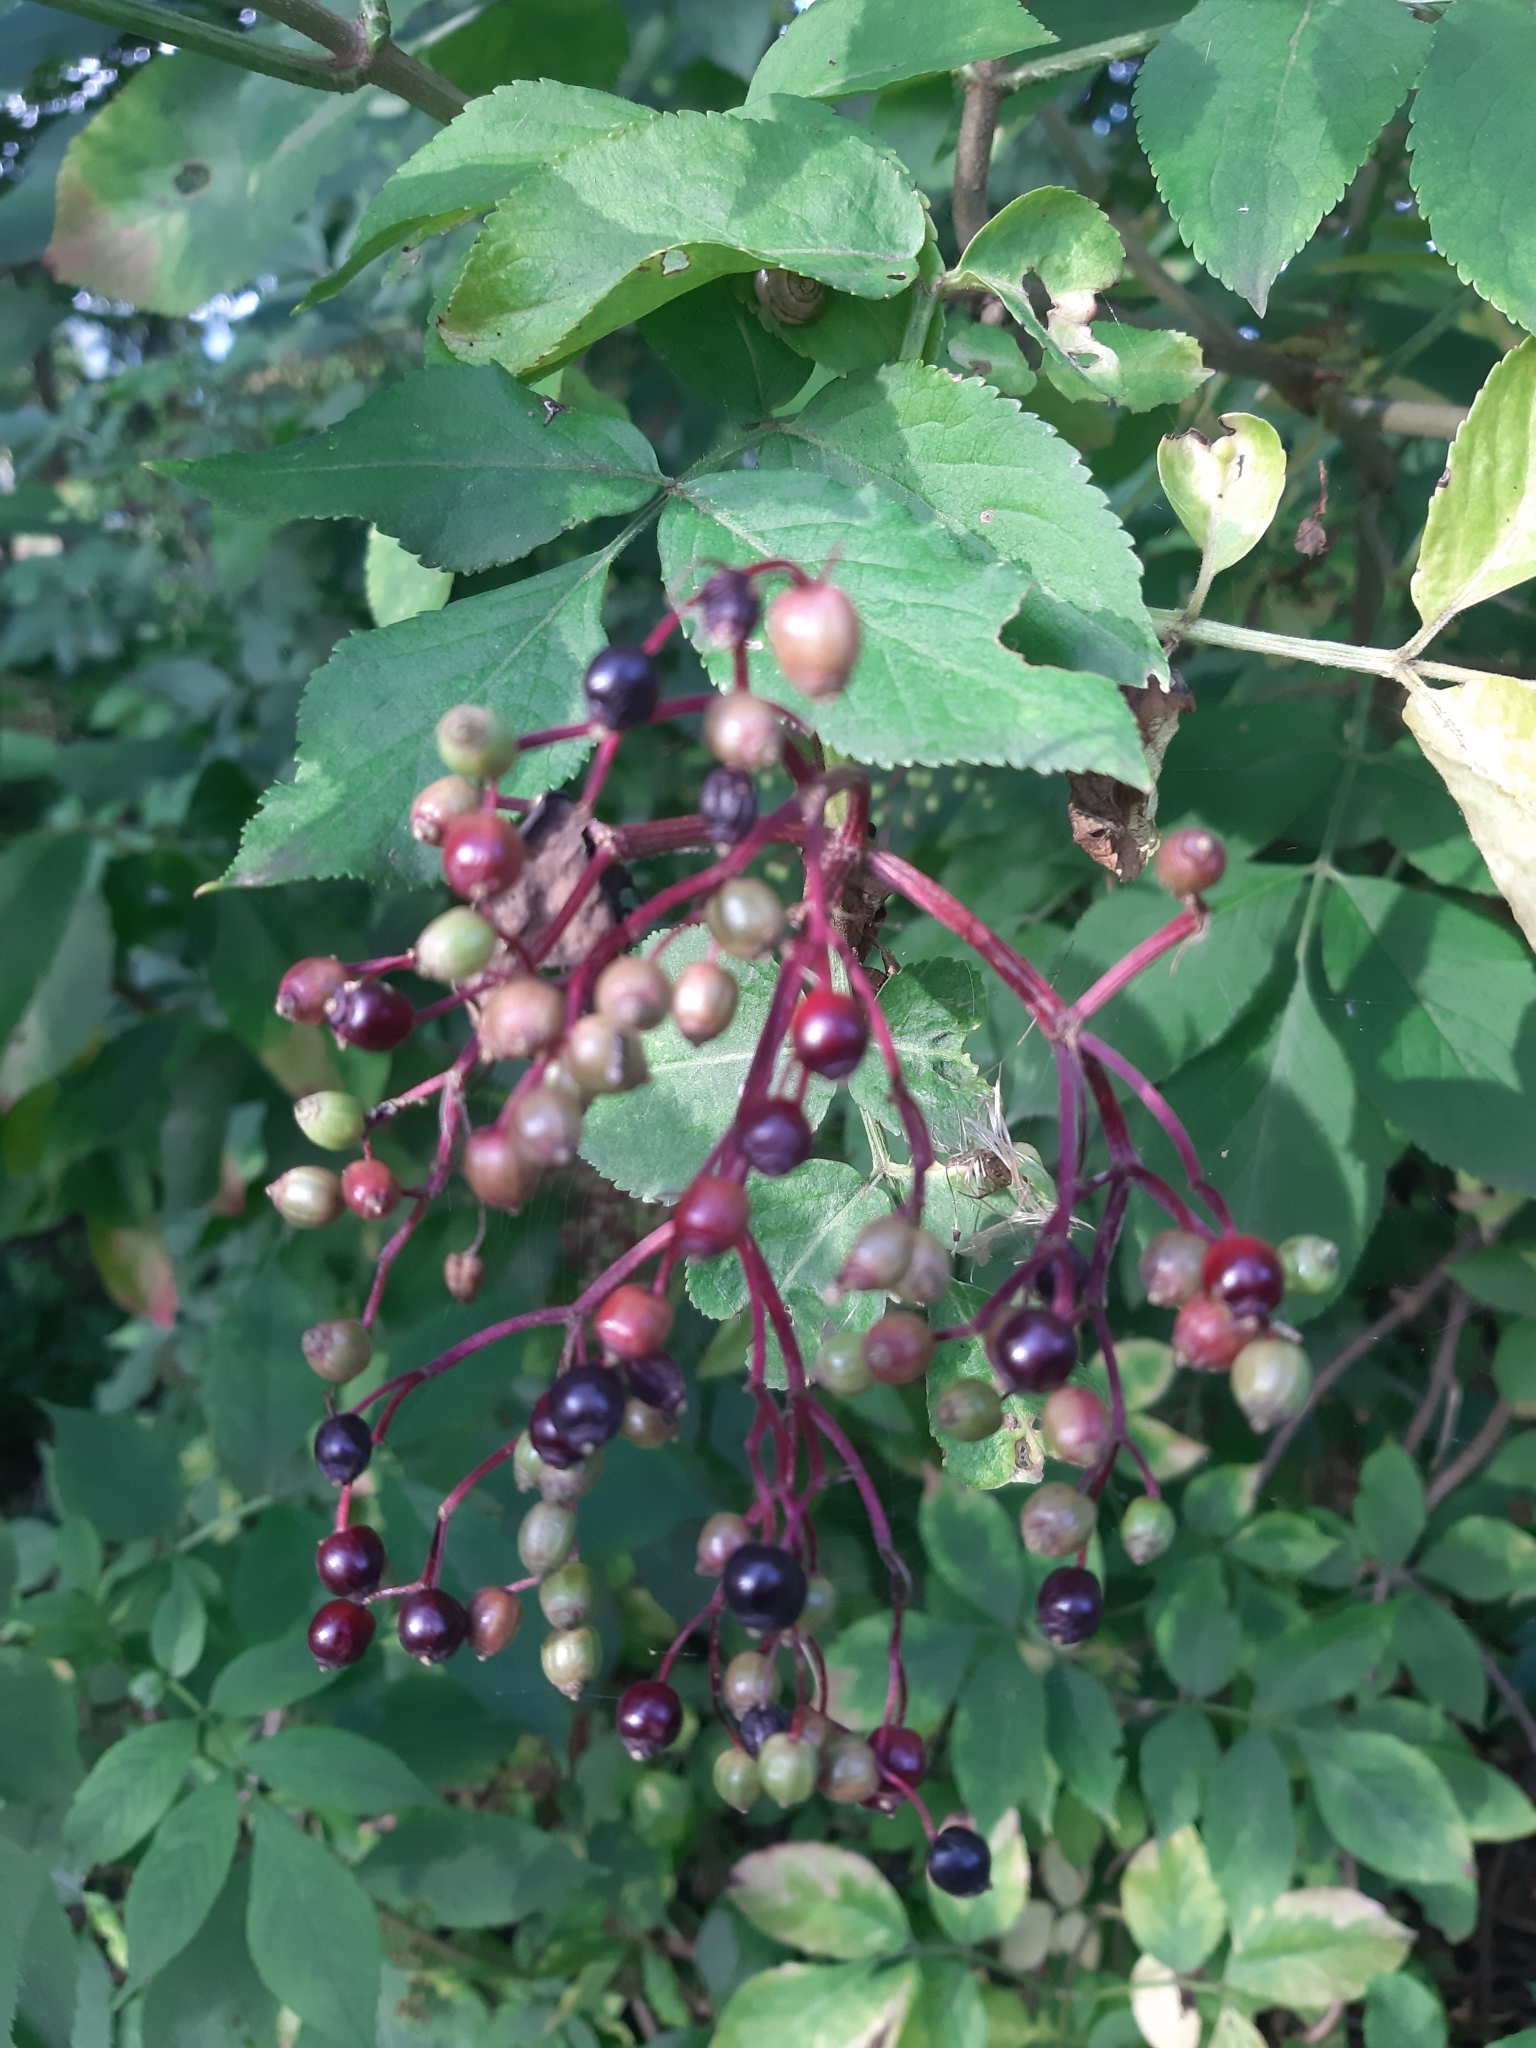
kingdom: Plantae
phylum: Tracheophyta
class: Magnoliopsida
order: Dipsacales
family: Viburnaceae
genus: Sambucus
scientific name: Sambucus nigra
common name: Elder
